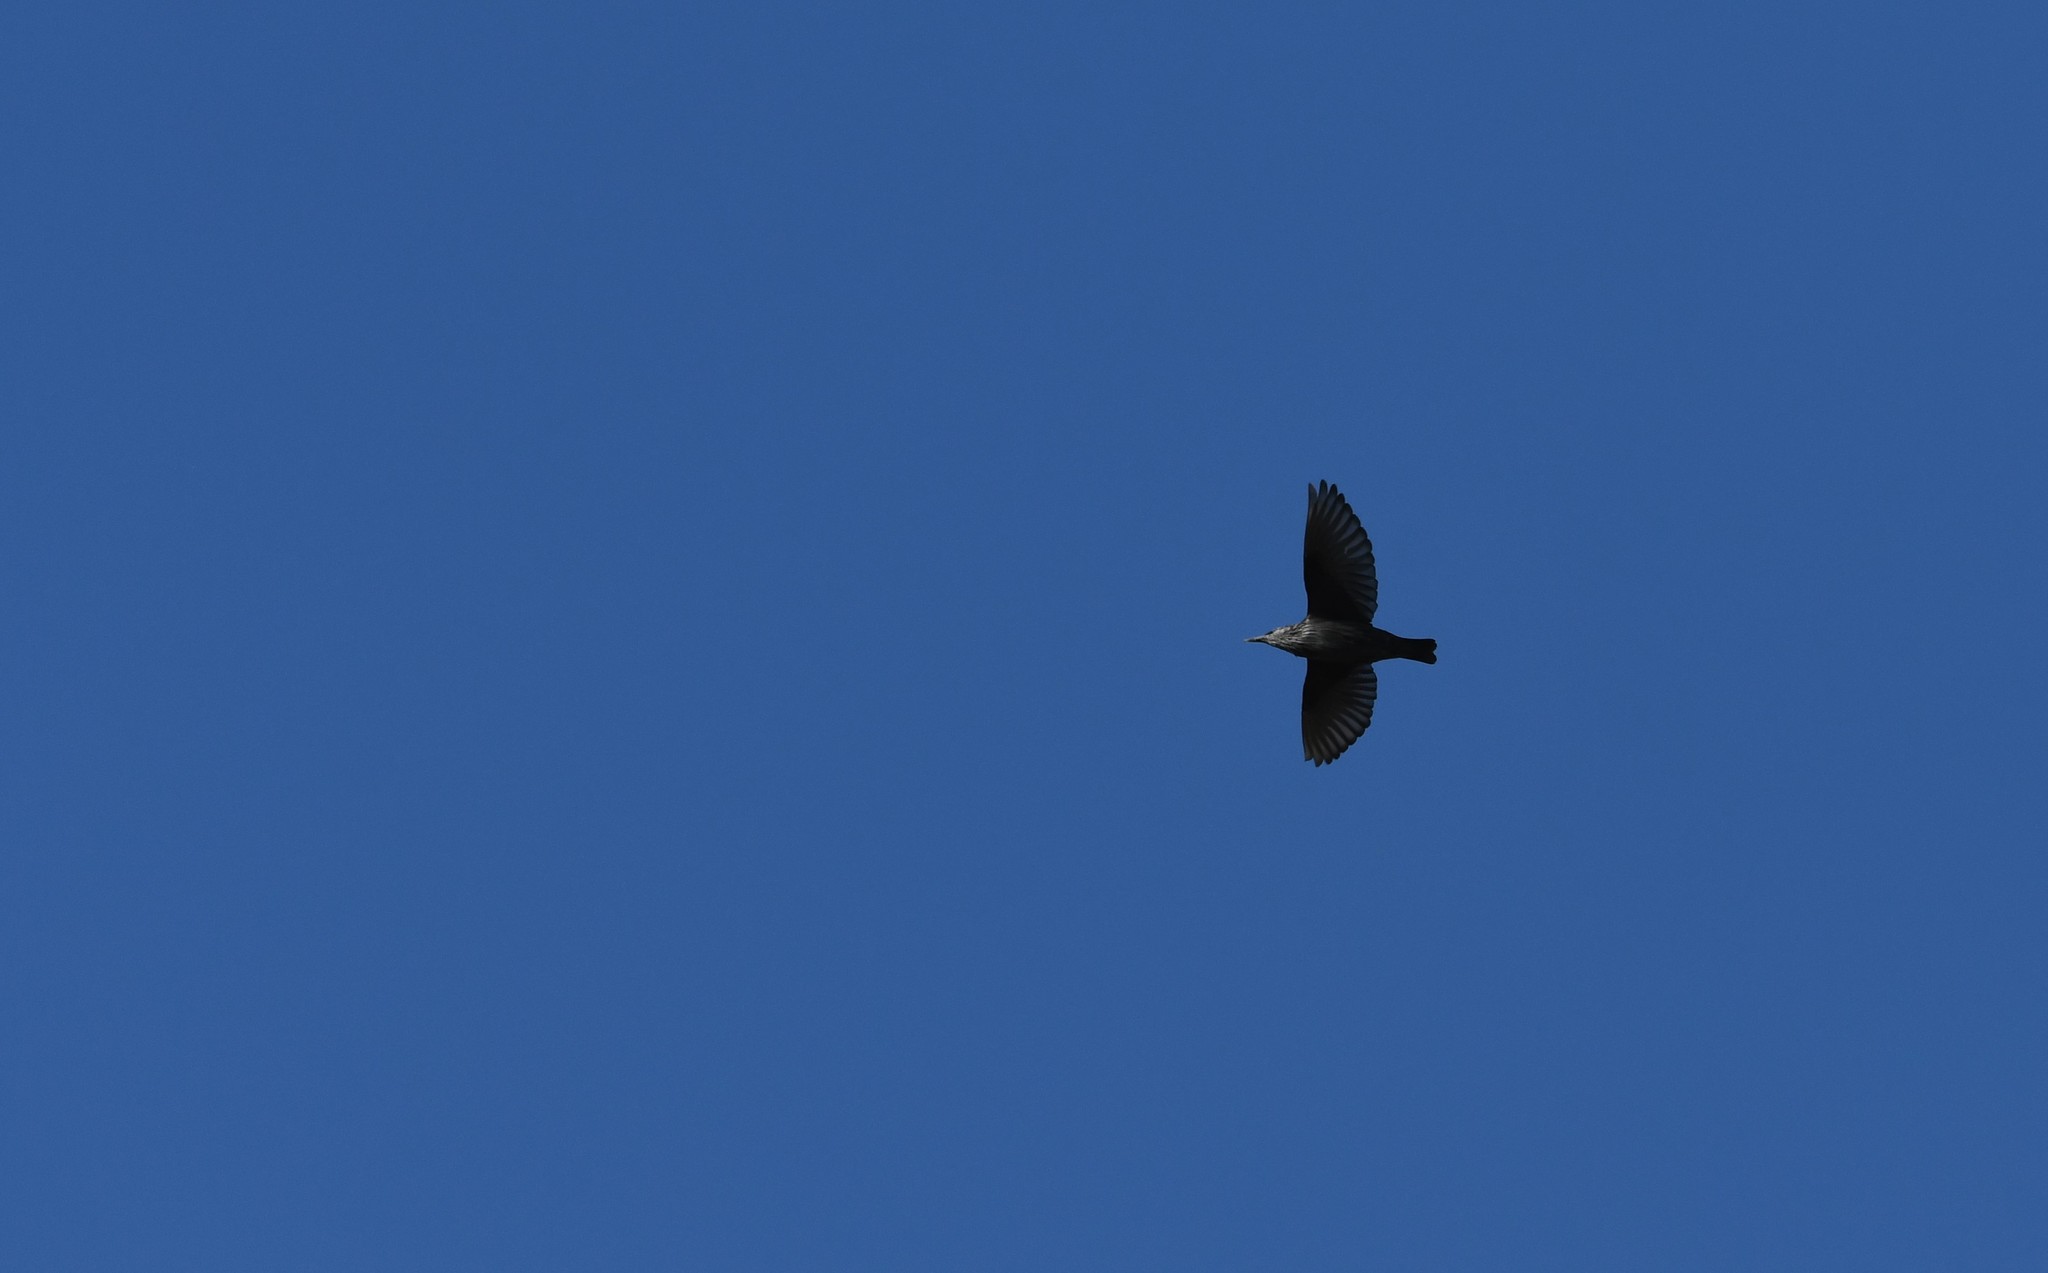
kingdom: Animalia
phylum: Chordata
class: Aves
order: Passeriformes
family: Sturnidae
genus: Sturnus
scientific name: Sturnus unicolor
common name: Spotless starling
